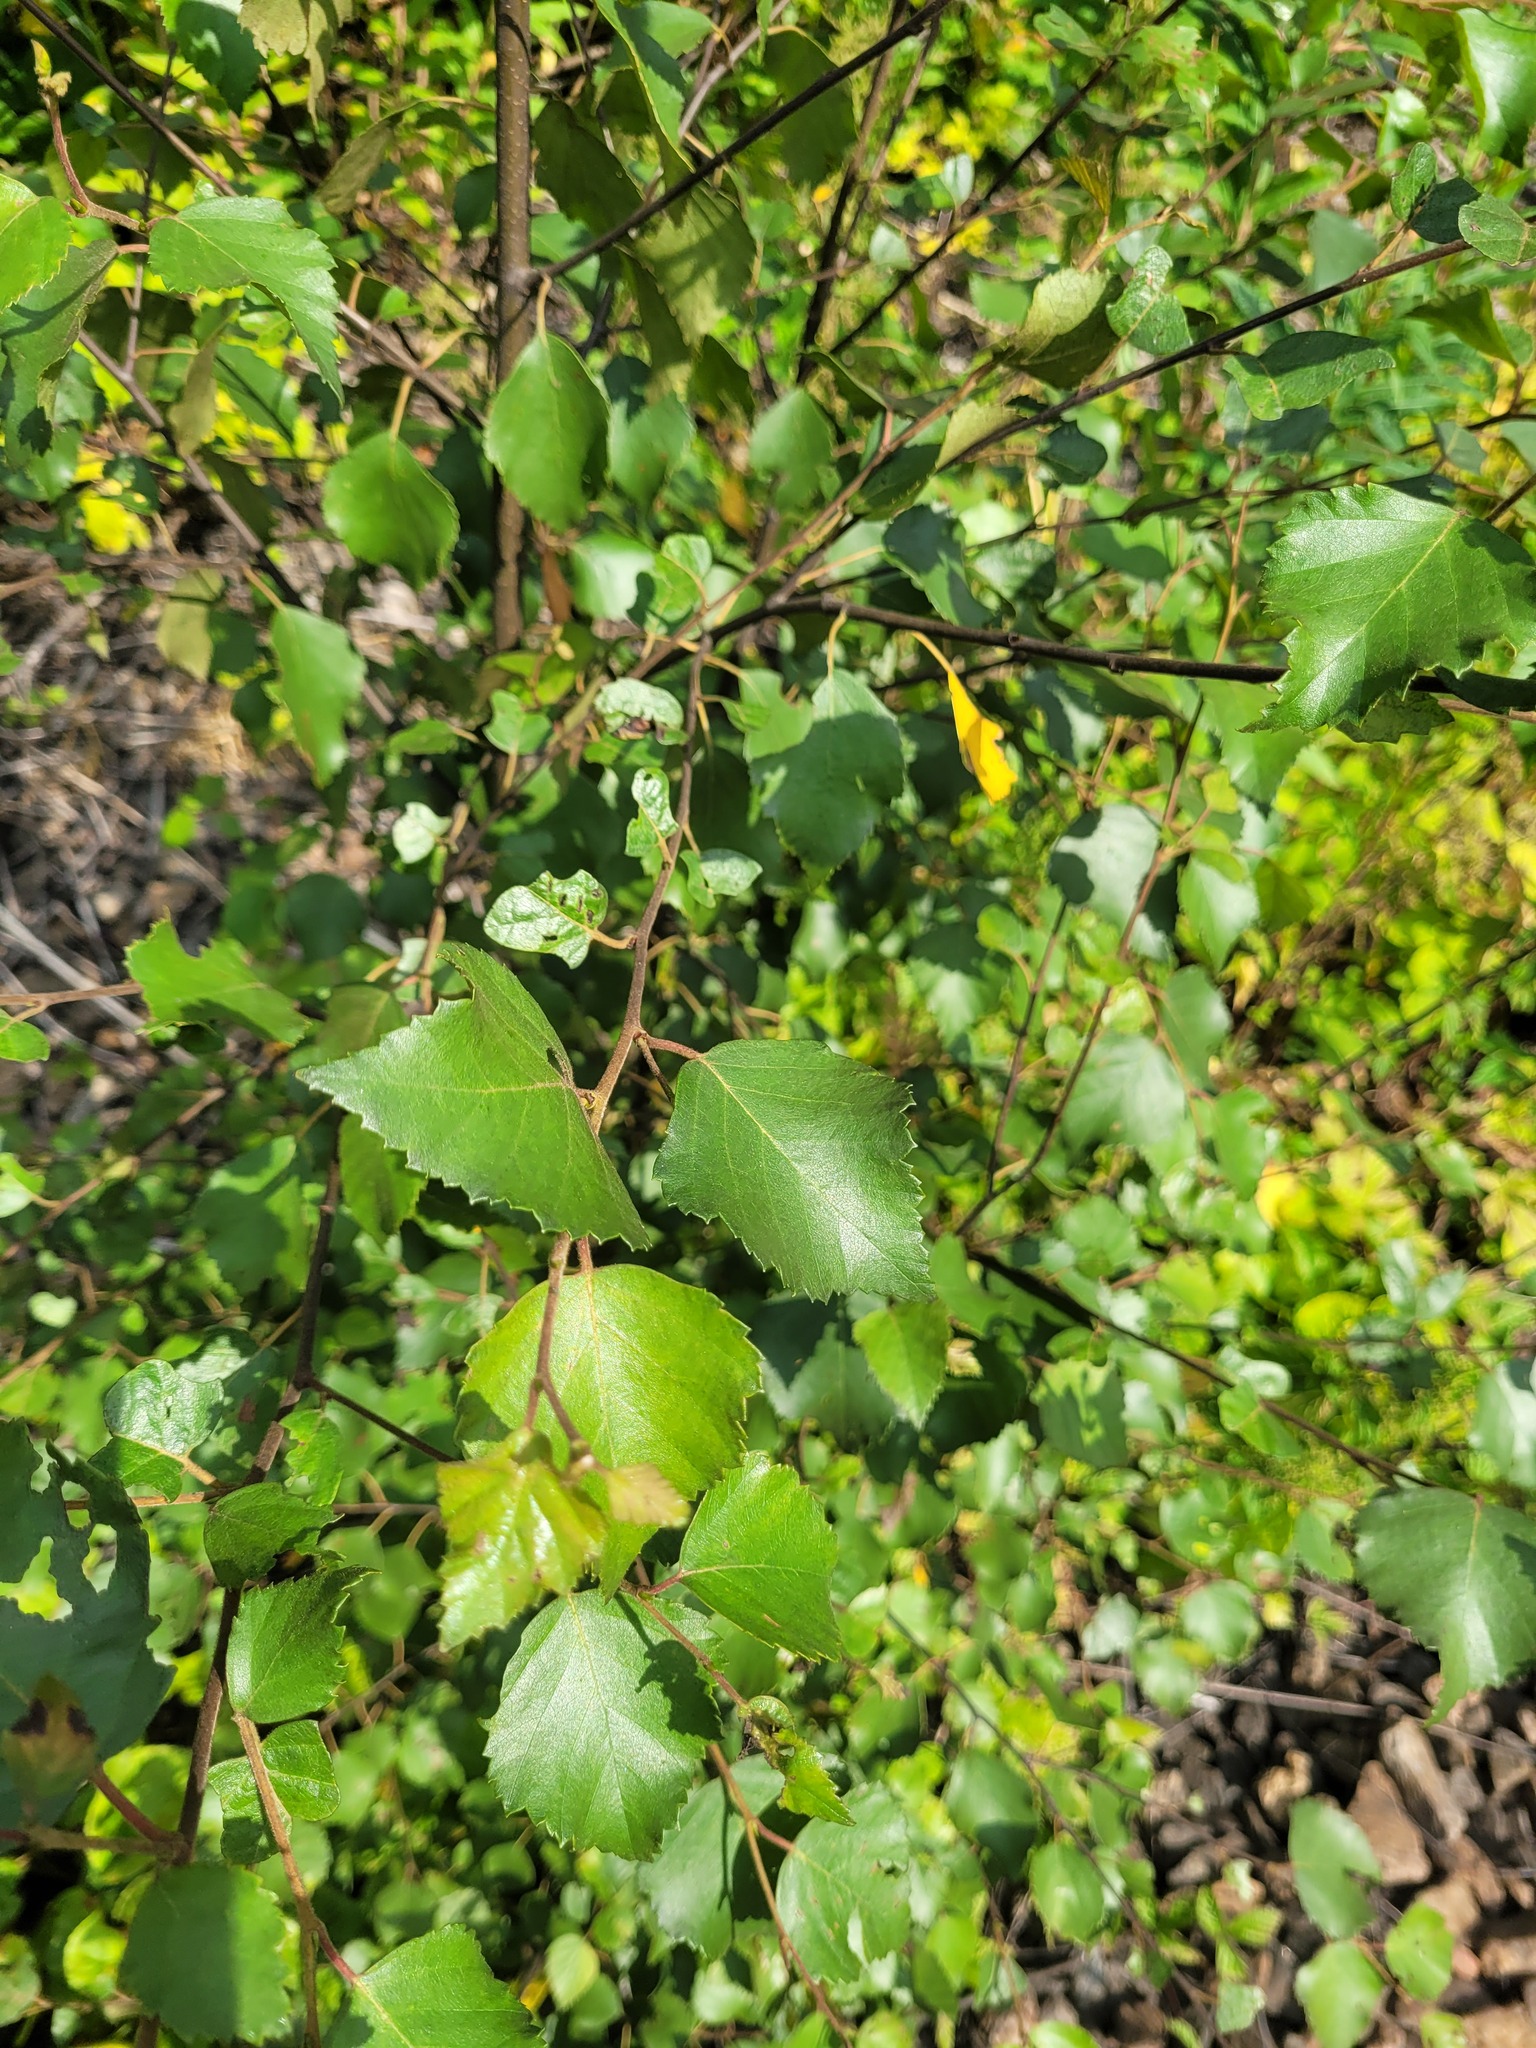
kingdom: Plantae
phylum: Tracheophyta
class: Magnoliopsida
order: Fagales
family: Betulaceae
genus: Betula
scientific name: Betula pubescens
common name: Downy birch
